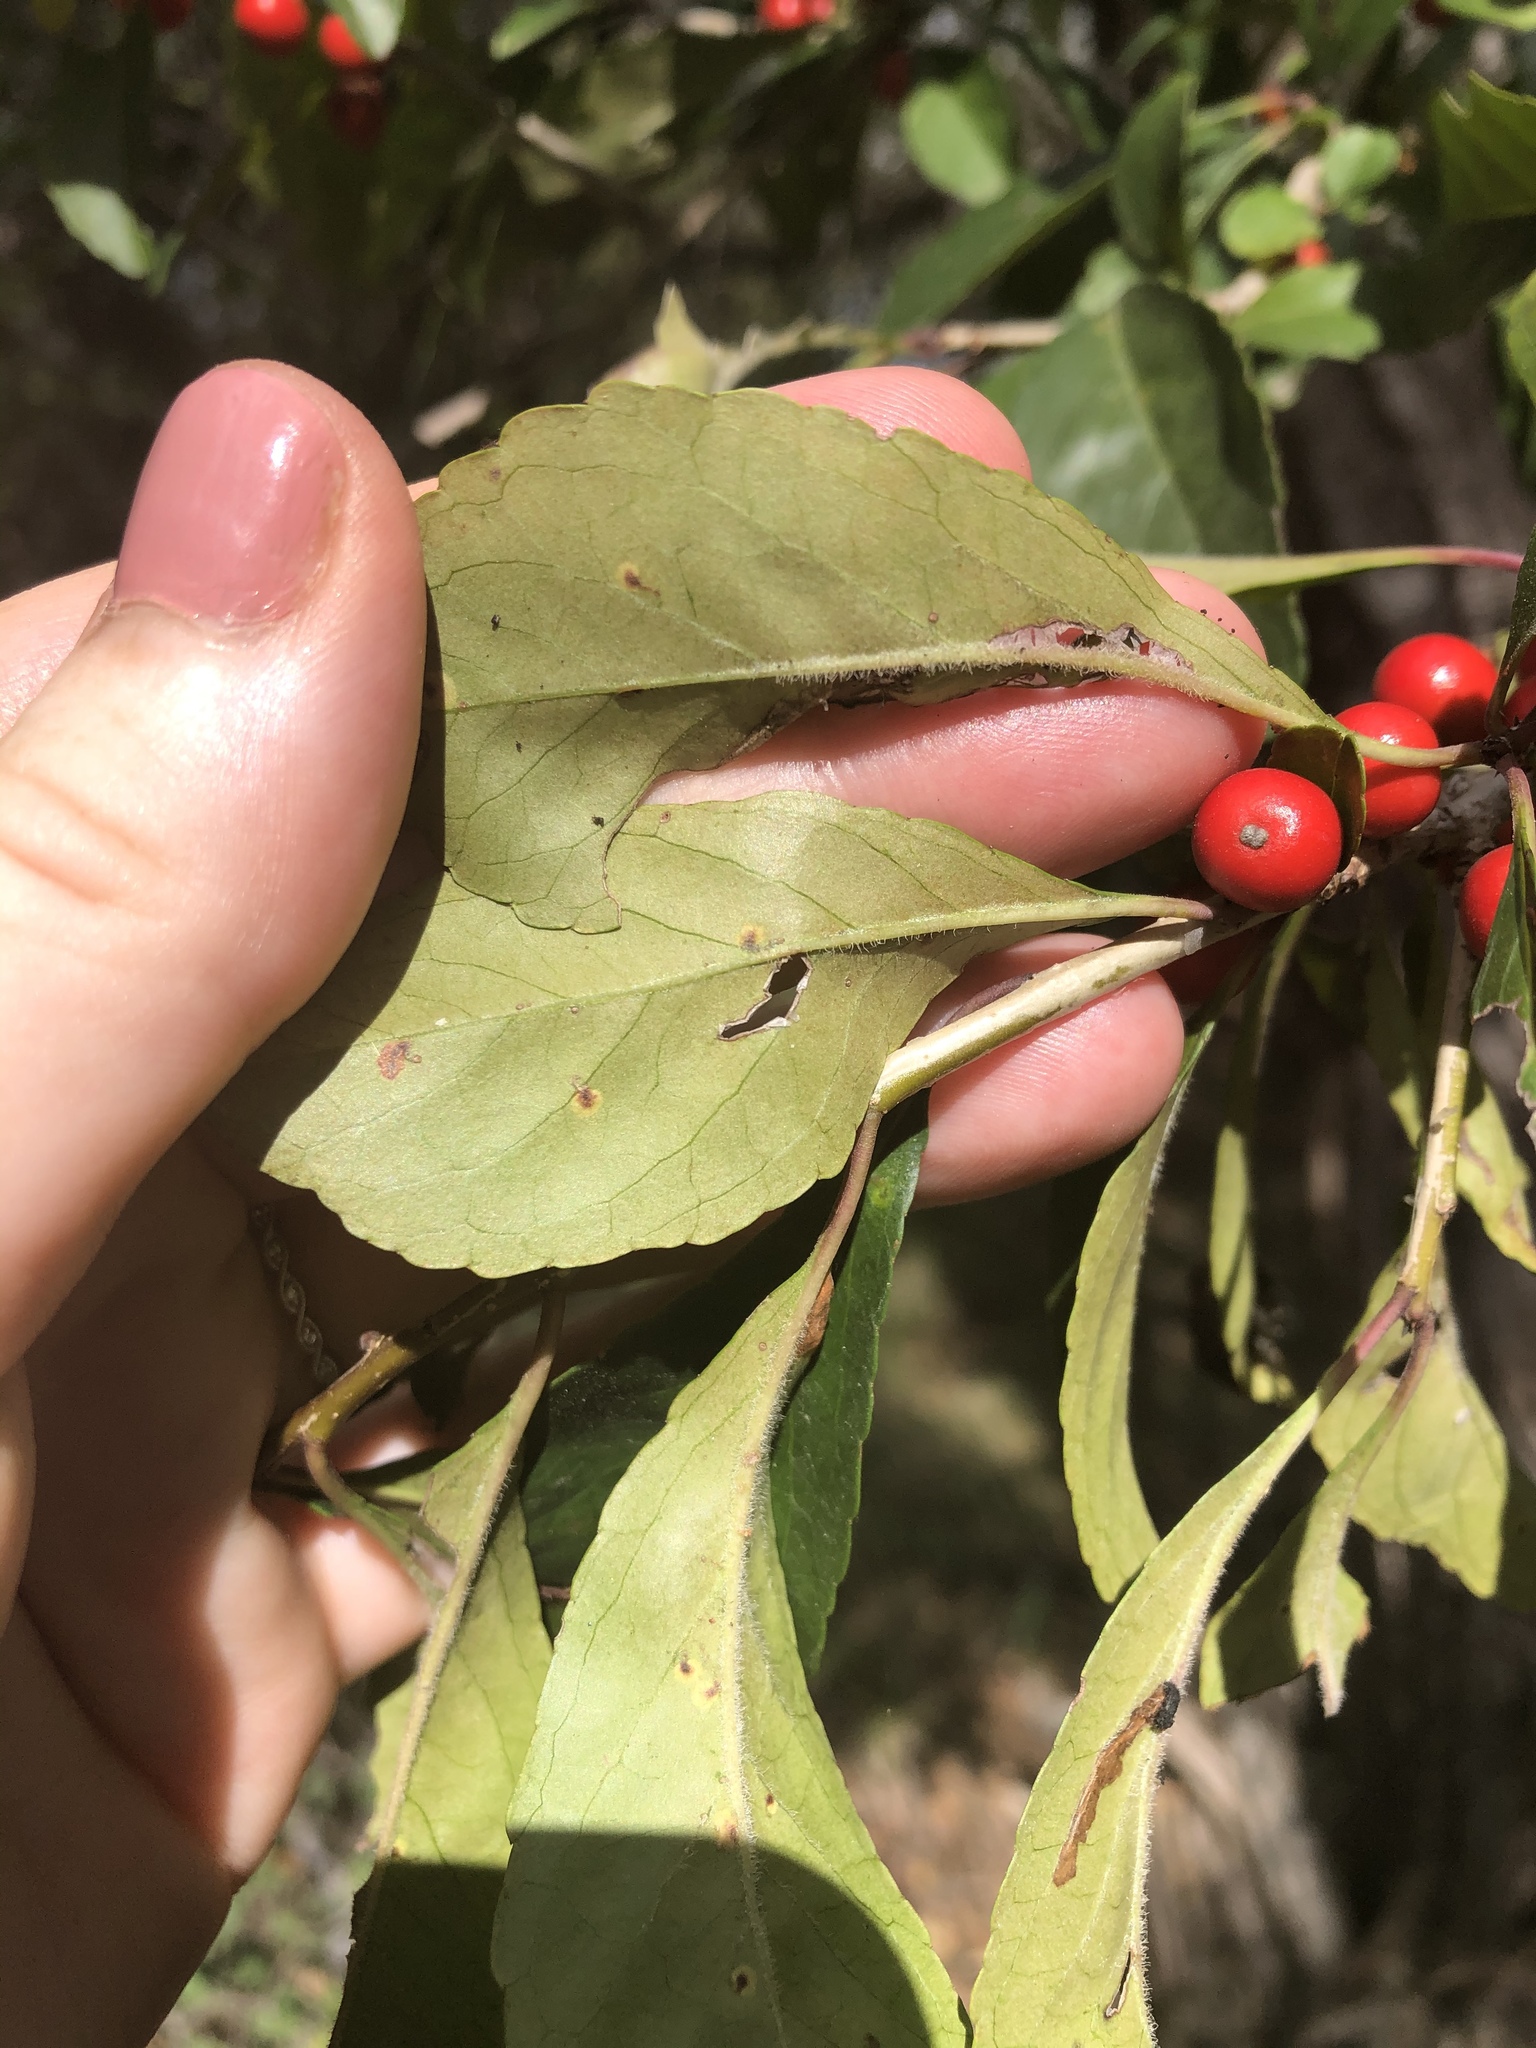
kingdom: Plantae
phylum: Tracheophyta
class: Magnoliopsida
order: Aquifoliales
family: Aquifoliaceae
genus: Ilex
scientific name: Ilex decidua
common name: Possum-haw
